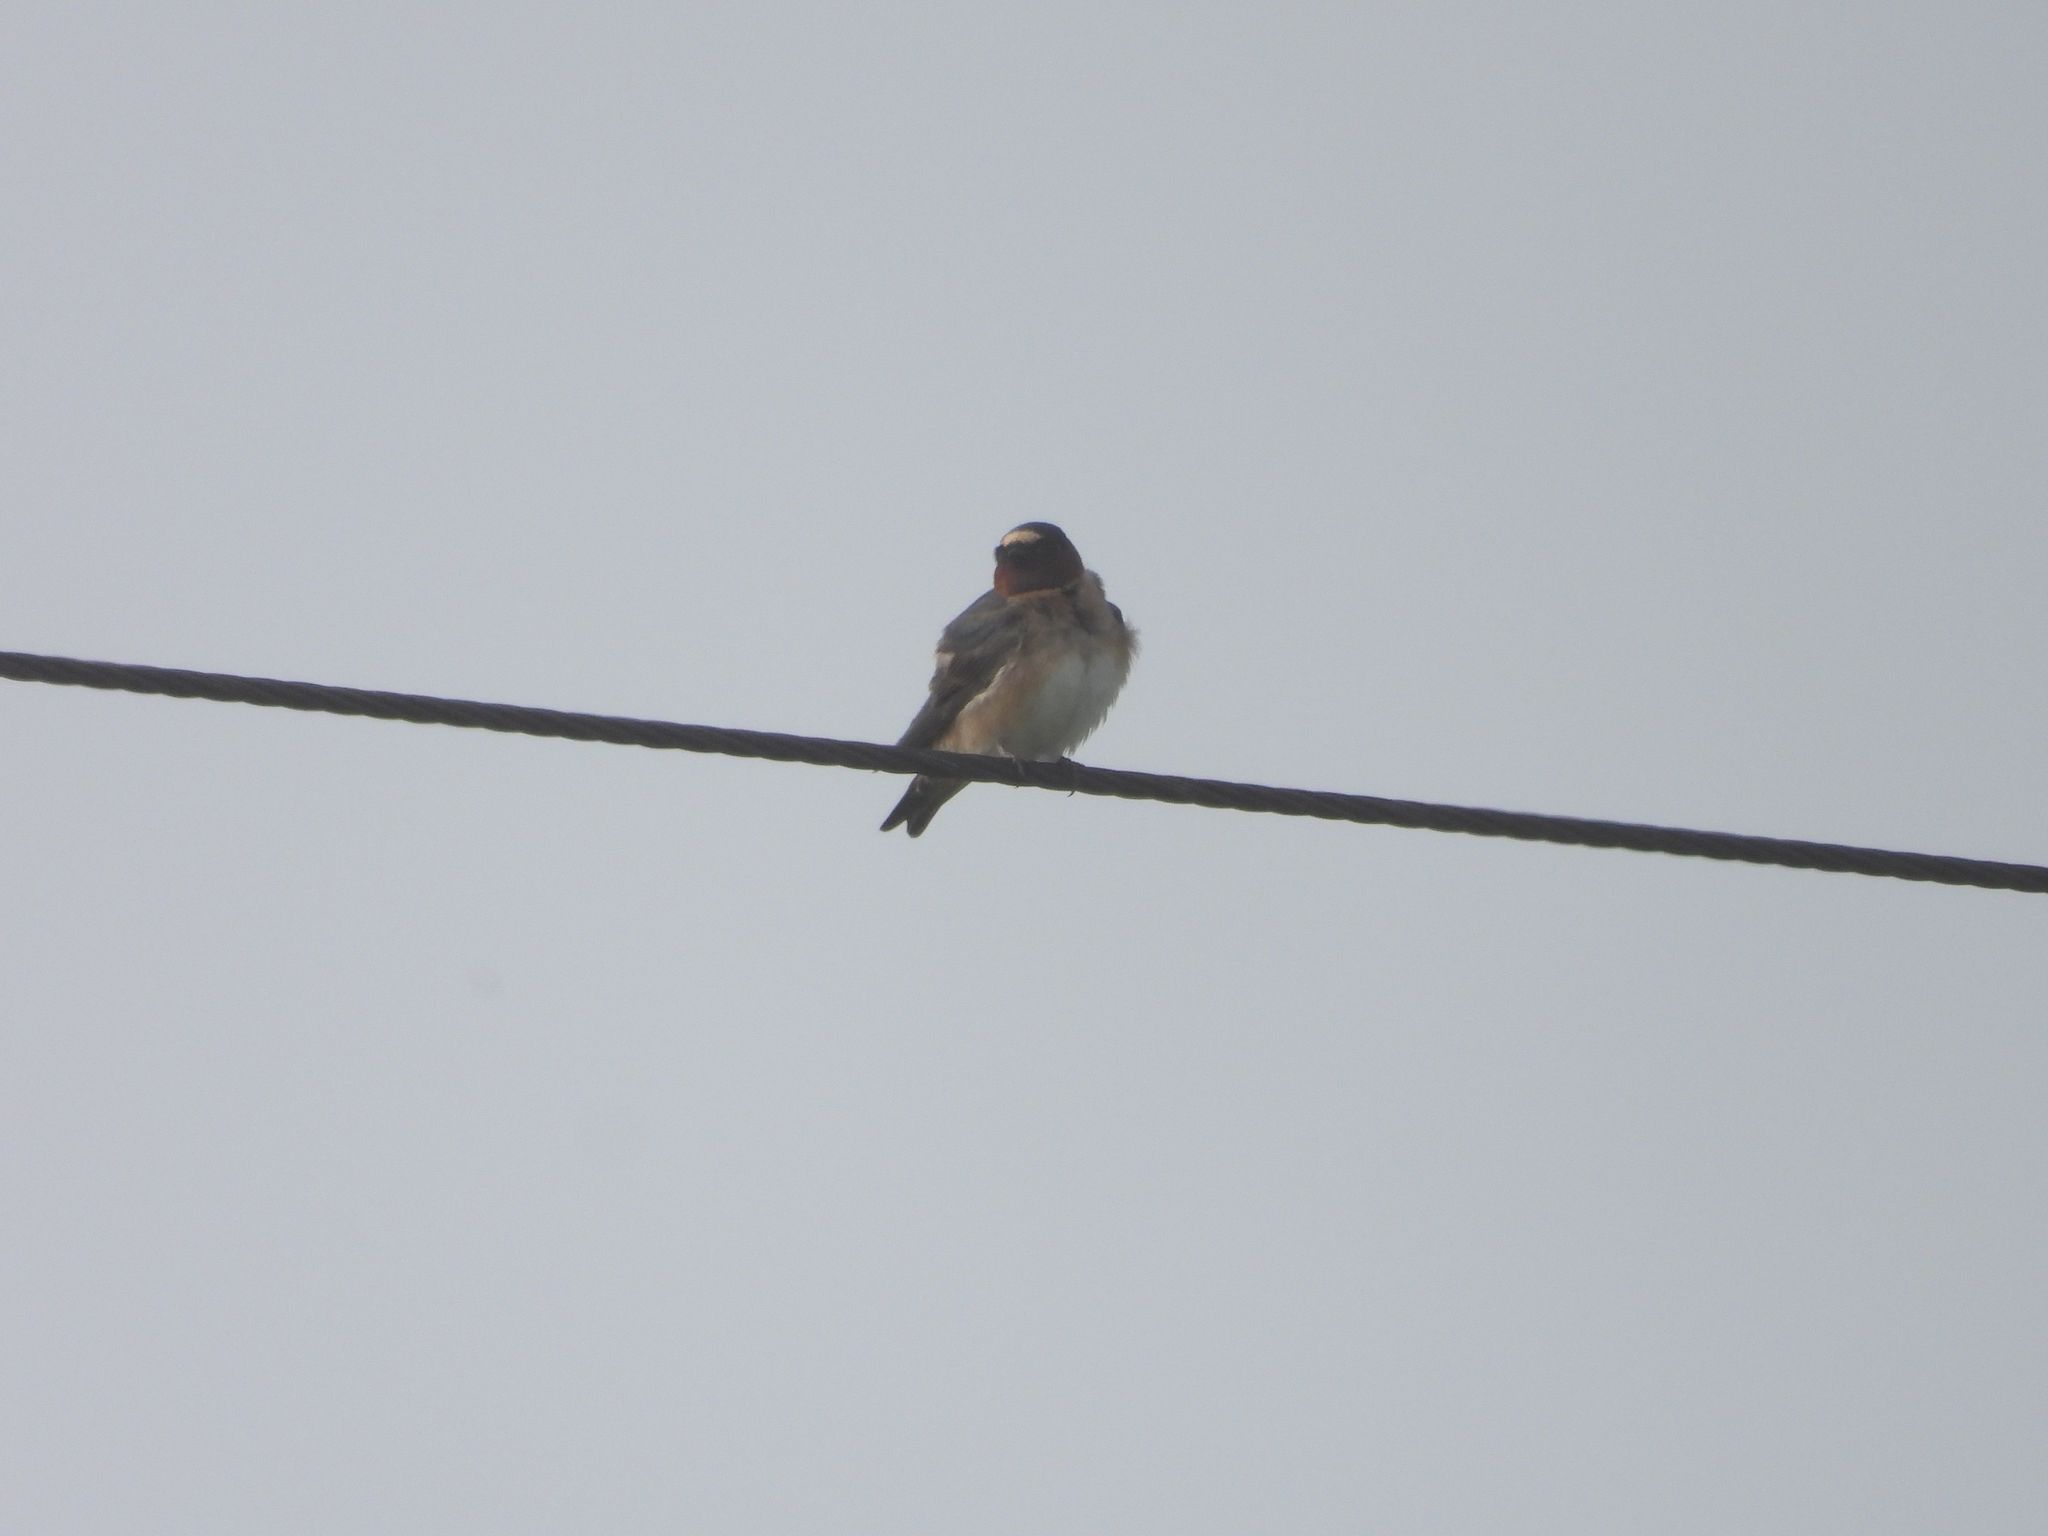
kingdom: Animalia
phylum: Chordata
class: Aves
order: Passeriformes
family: Hirundinidae
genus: Petrochelidon
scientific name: Petrochelidon pyrrhonota
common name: American cliff swallow
